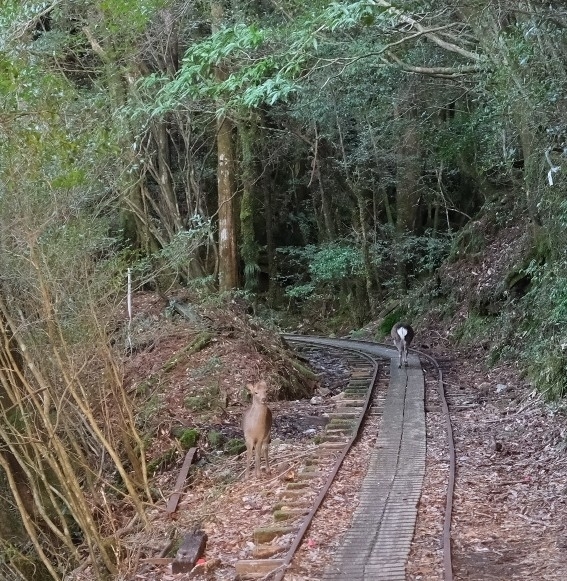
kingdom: Animalia
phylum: Chordata
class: Mammalia
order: Artiodactyla
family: Cervidae
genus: Cervus
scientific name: Cervus nippon
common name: Sika deer
